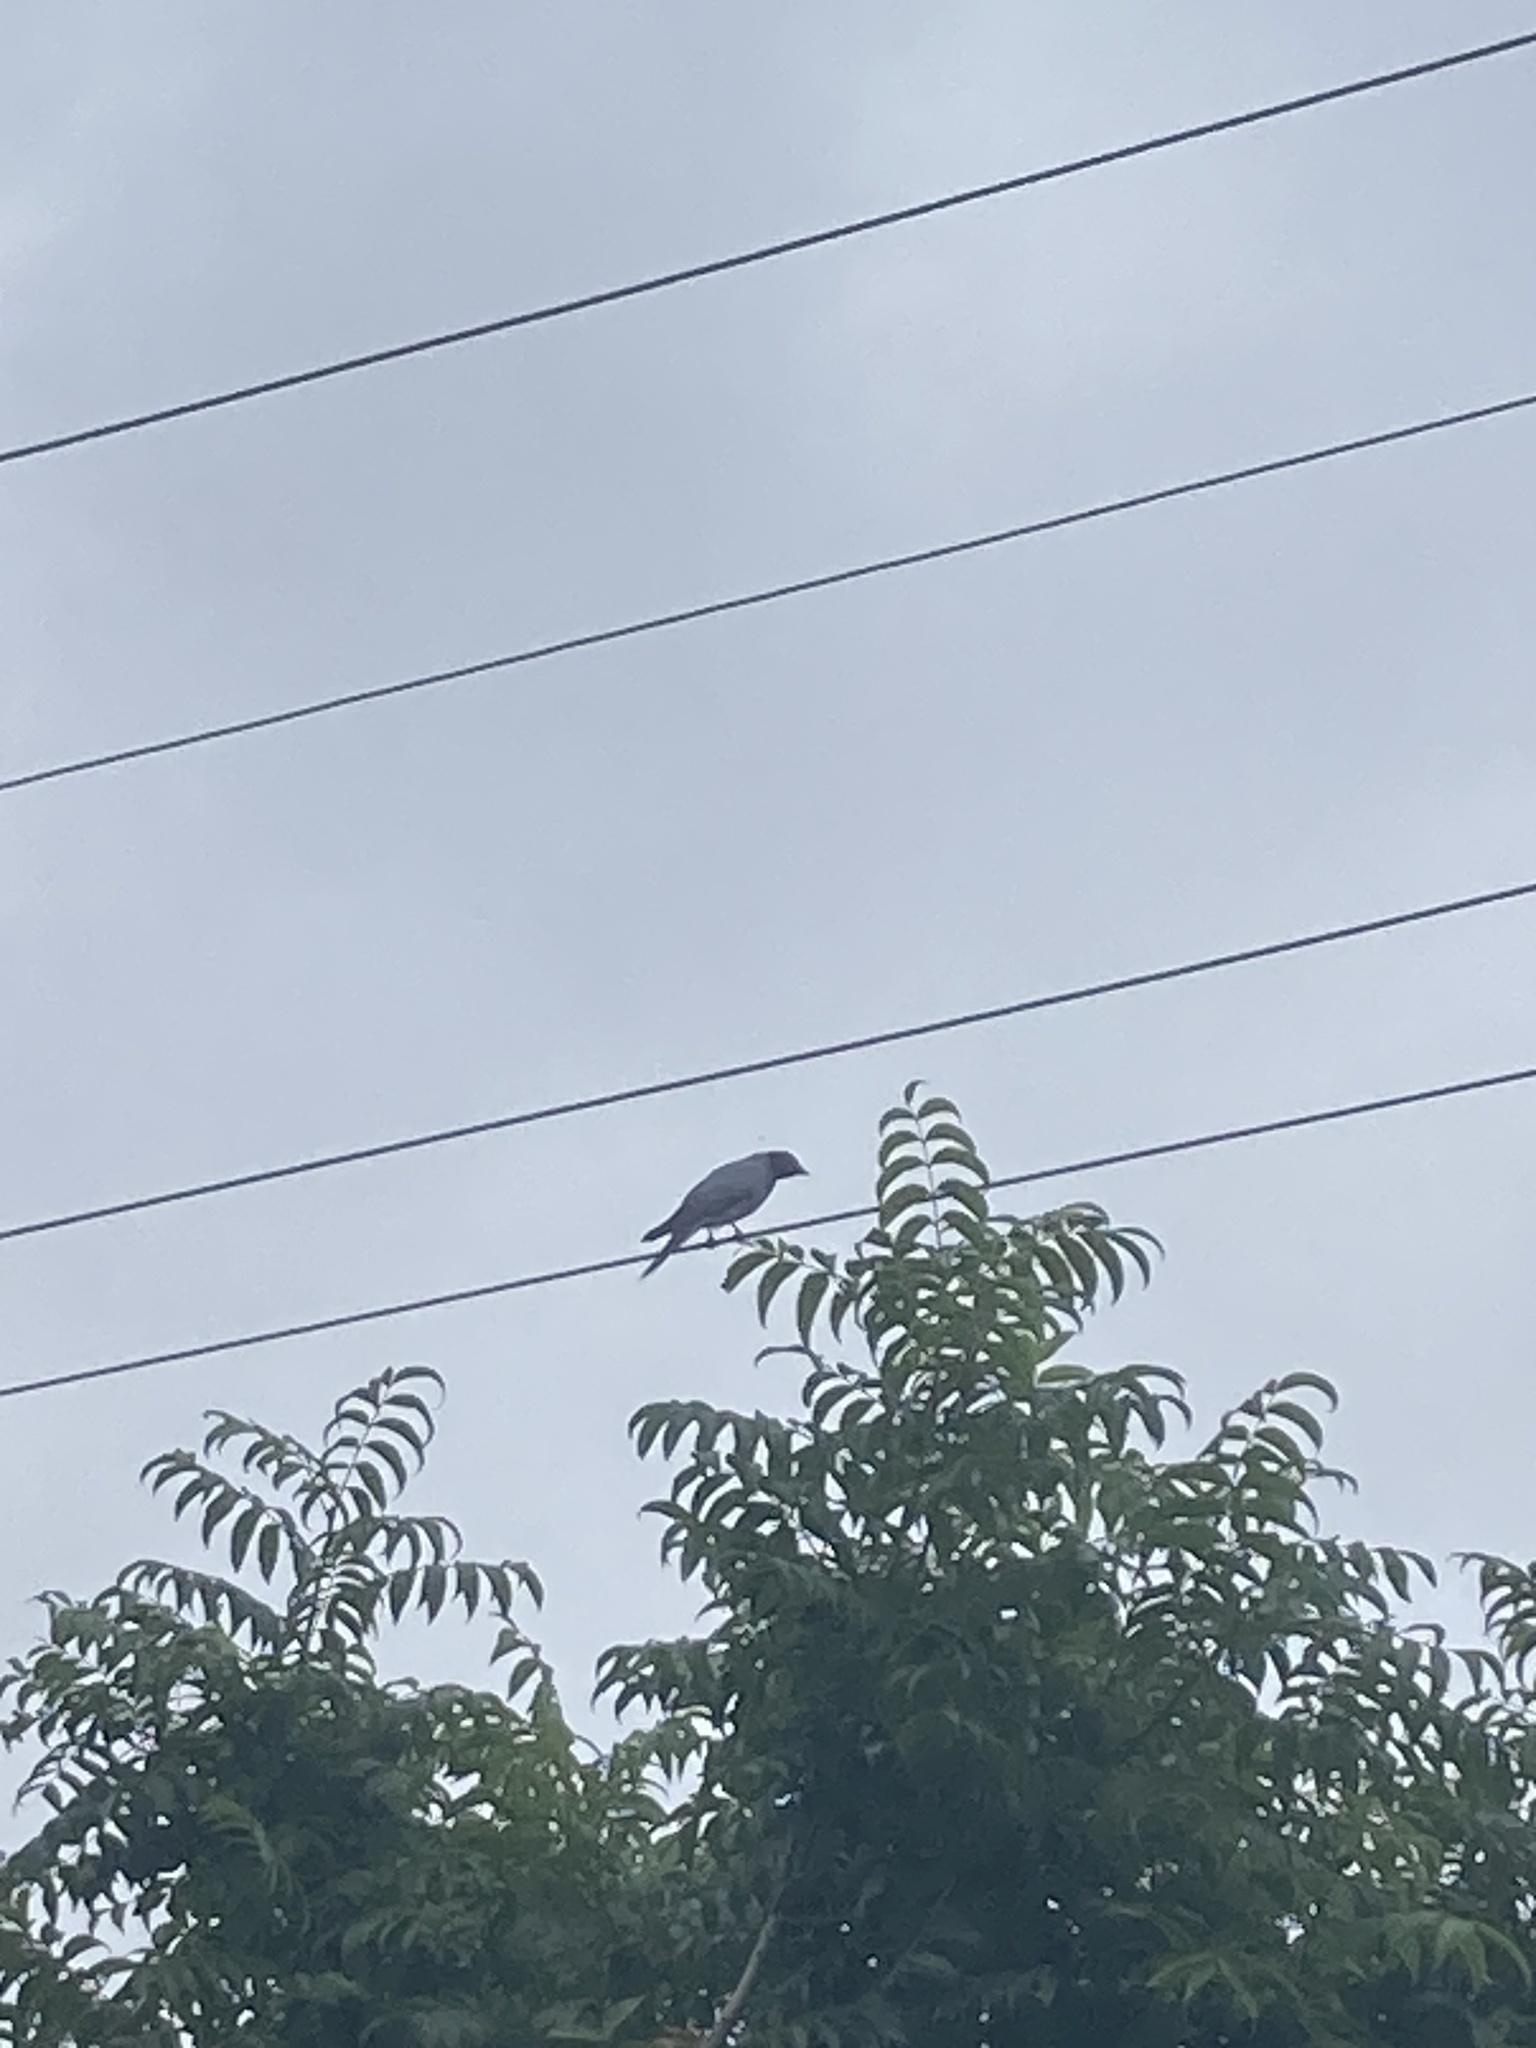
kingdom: Animalia
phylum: Chordata
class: Aves
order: Passeriformes
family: Campephagidae
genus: Coracina
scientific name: Coracina novaehollandiae
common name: Black-faced cuckooshrike
